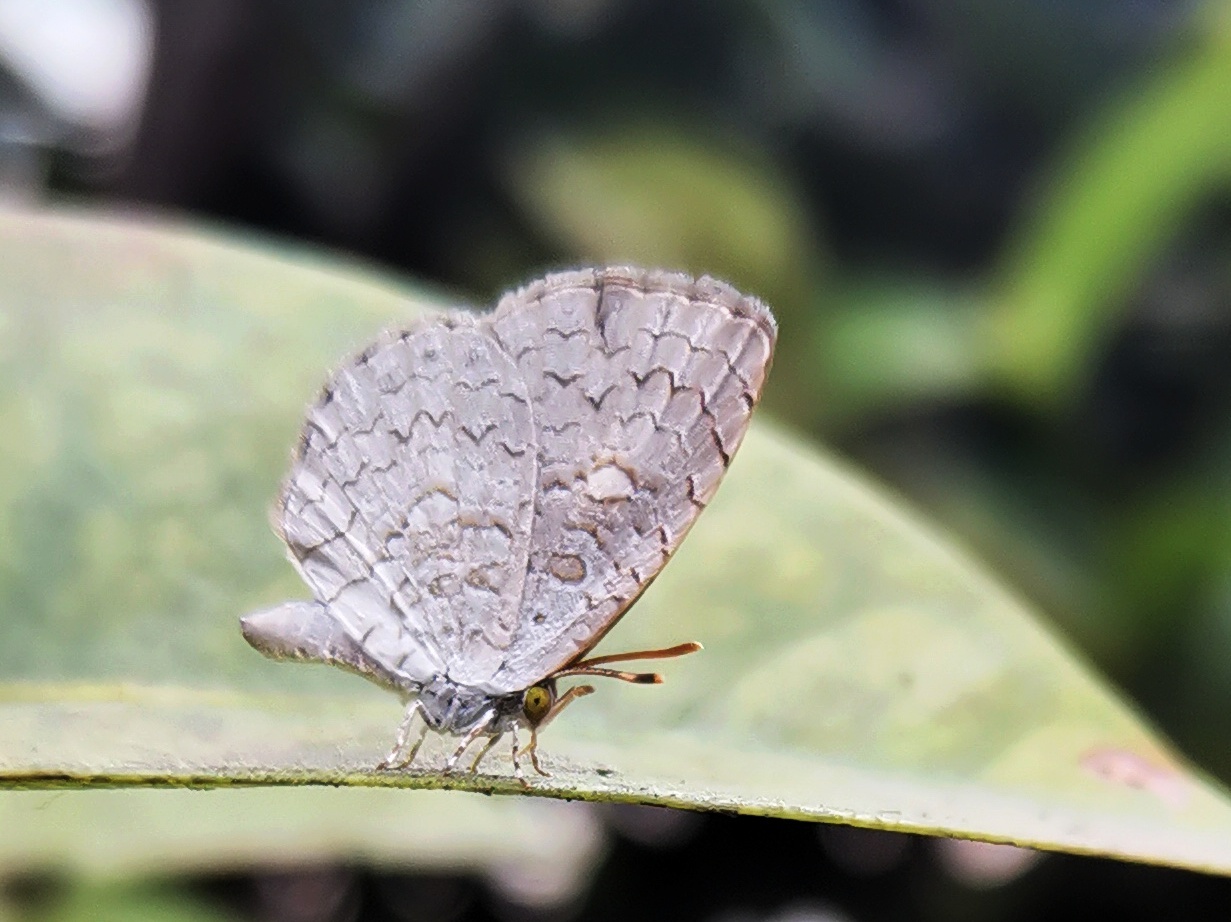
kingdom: Animalia
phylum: Arthropoda
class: Insecta
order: Lepidoptera
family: Lycaenidae
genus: Spalgis
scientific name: Spalgis epius
